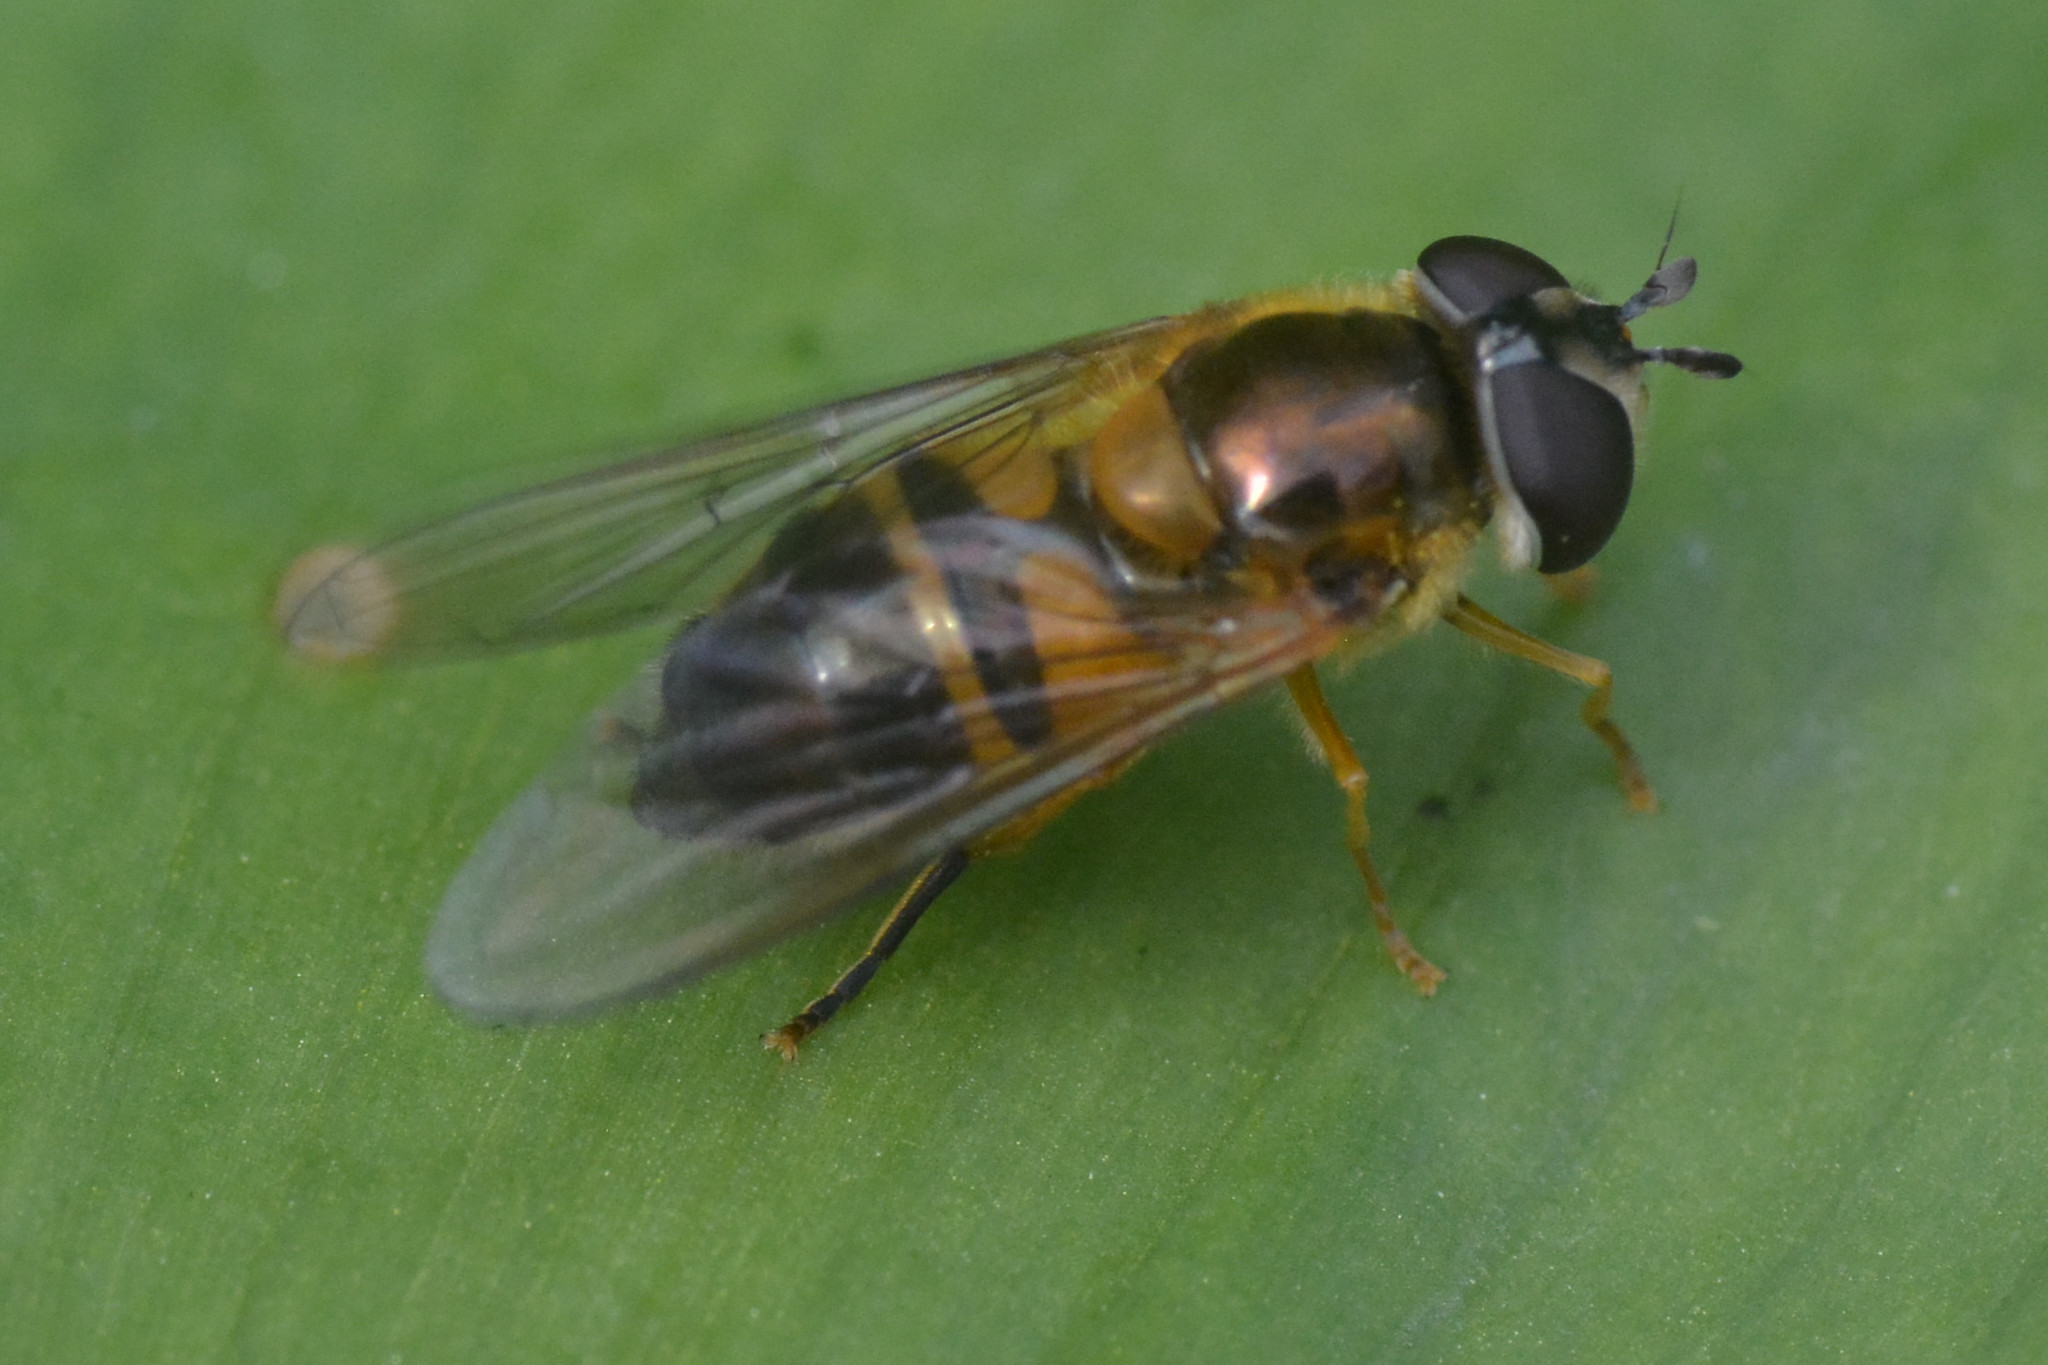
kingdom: Animalia
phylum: Arthropoda
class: Insecta
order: Diptera
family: Syrphidae
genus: Epistrophe
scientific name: Epistrophe eligans
